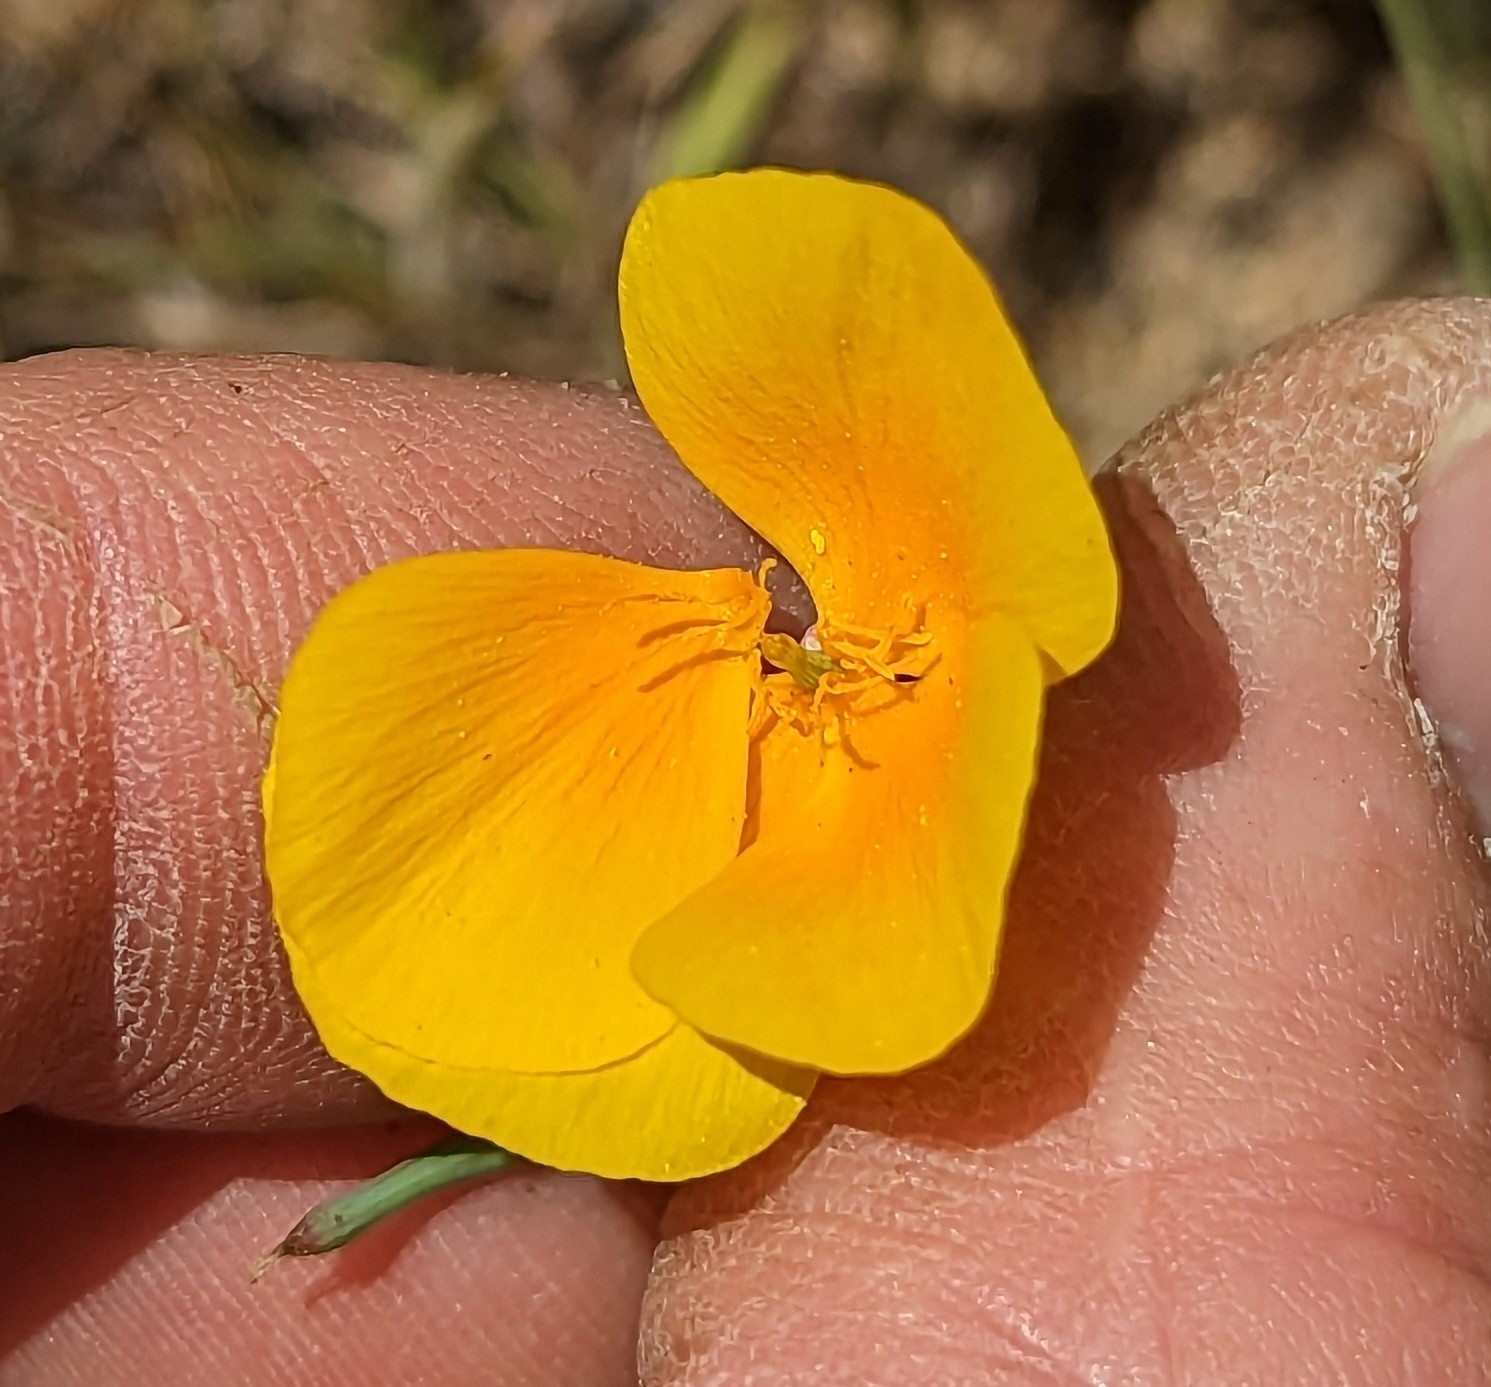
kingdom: Plantae
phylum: Tracheophyta
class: Magnoliopsida
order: Ranunculales
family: Papaveraceae
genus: Eschscholzia
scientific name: Eschscholzia californica
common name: California poppy
